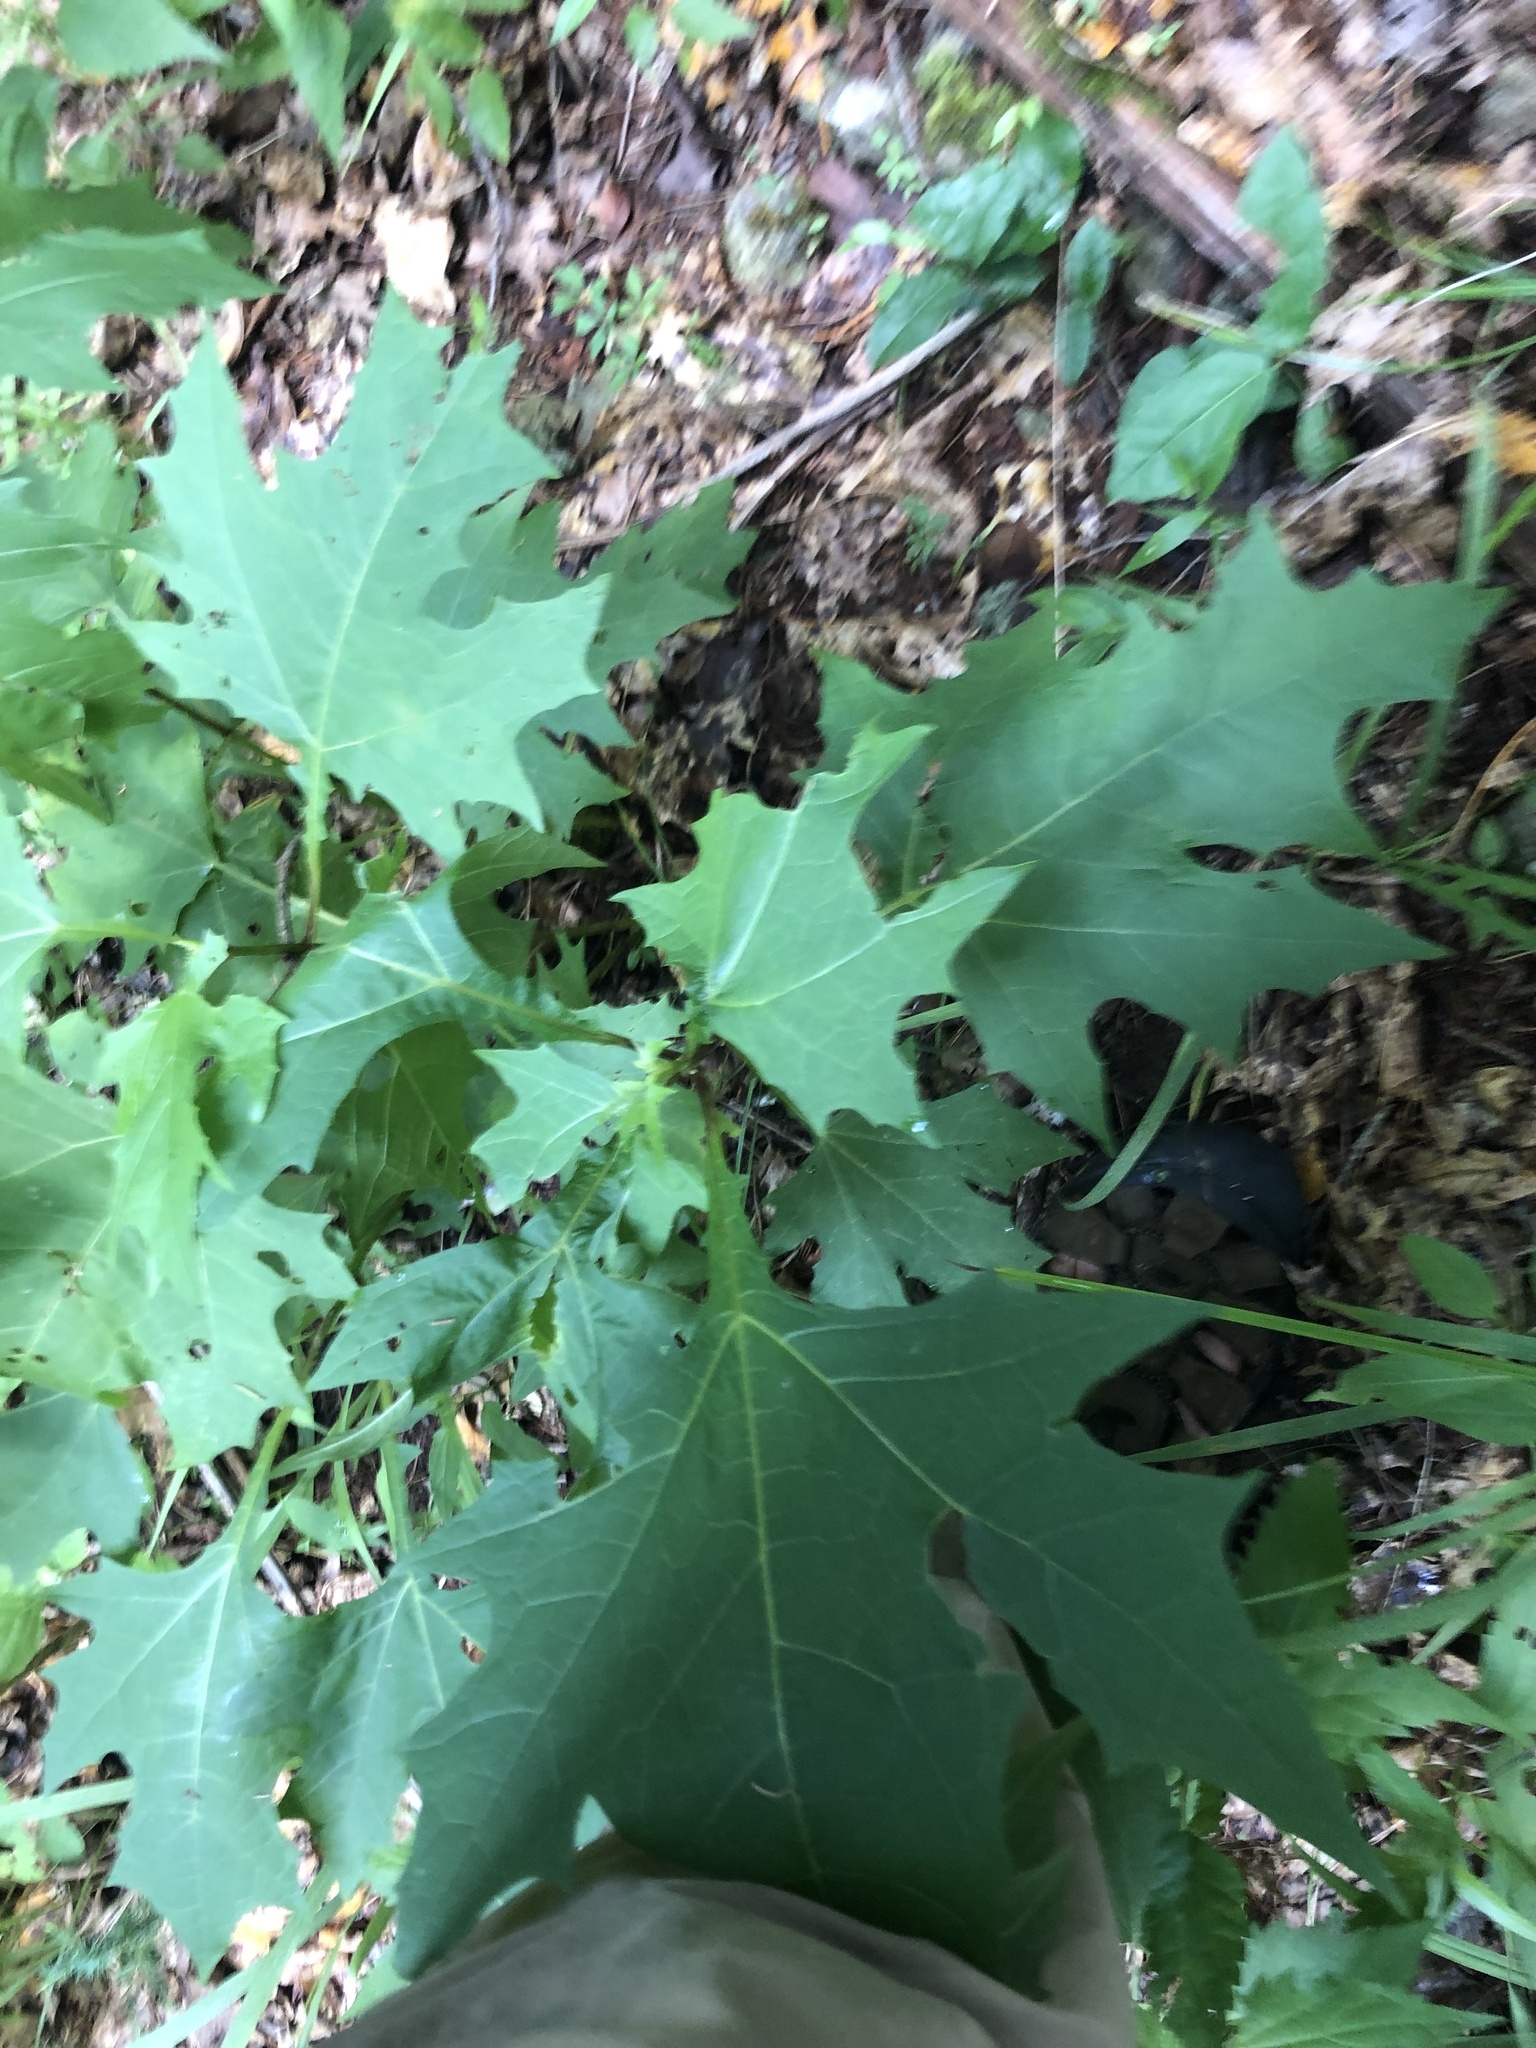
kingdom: Plantae
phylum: Tracheophyta
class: Magnoliopsida
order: Asterales
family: Asteraceae
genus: Smallanthus
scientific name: Smallanthus uvedalia
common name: Bear's-foot
